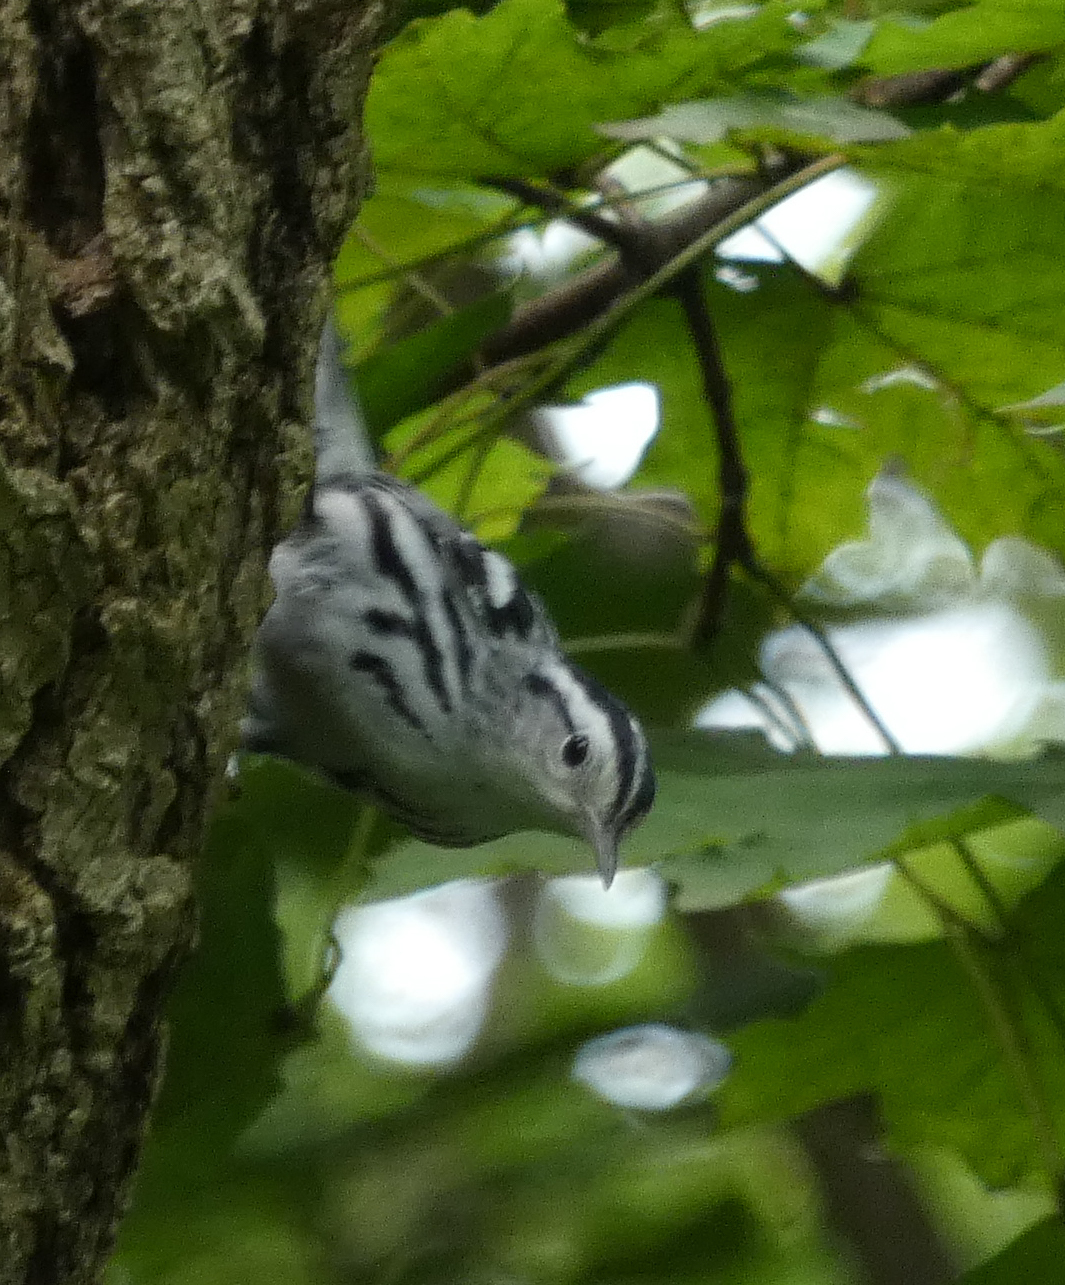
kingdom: Animalia
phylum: Chordata
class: Aves
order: Passeriformes
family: Parulidae
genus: Mniotilta
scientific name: Mniotilta varia
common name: Black-and-white warbler
